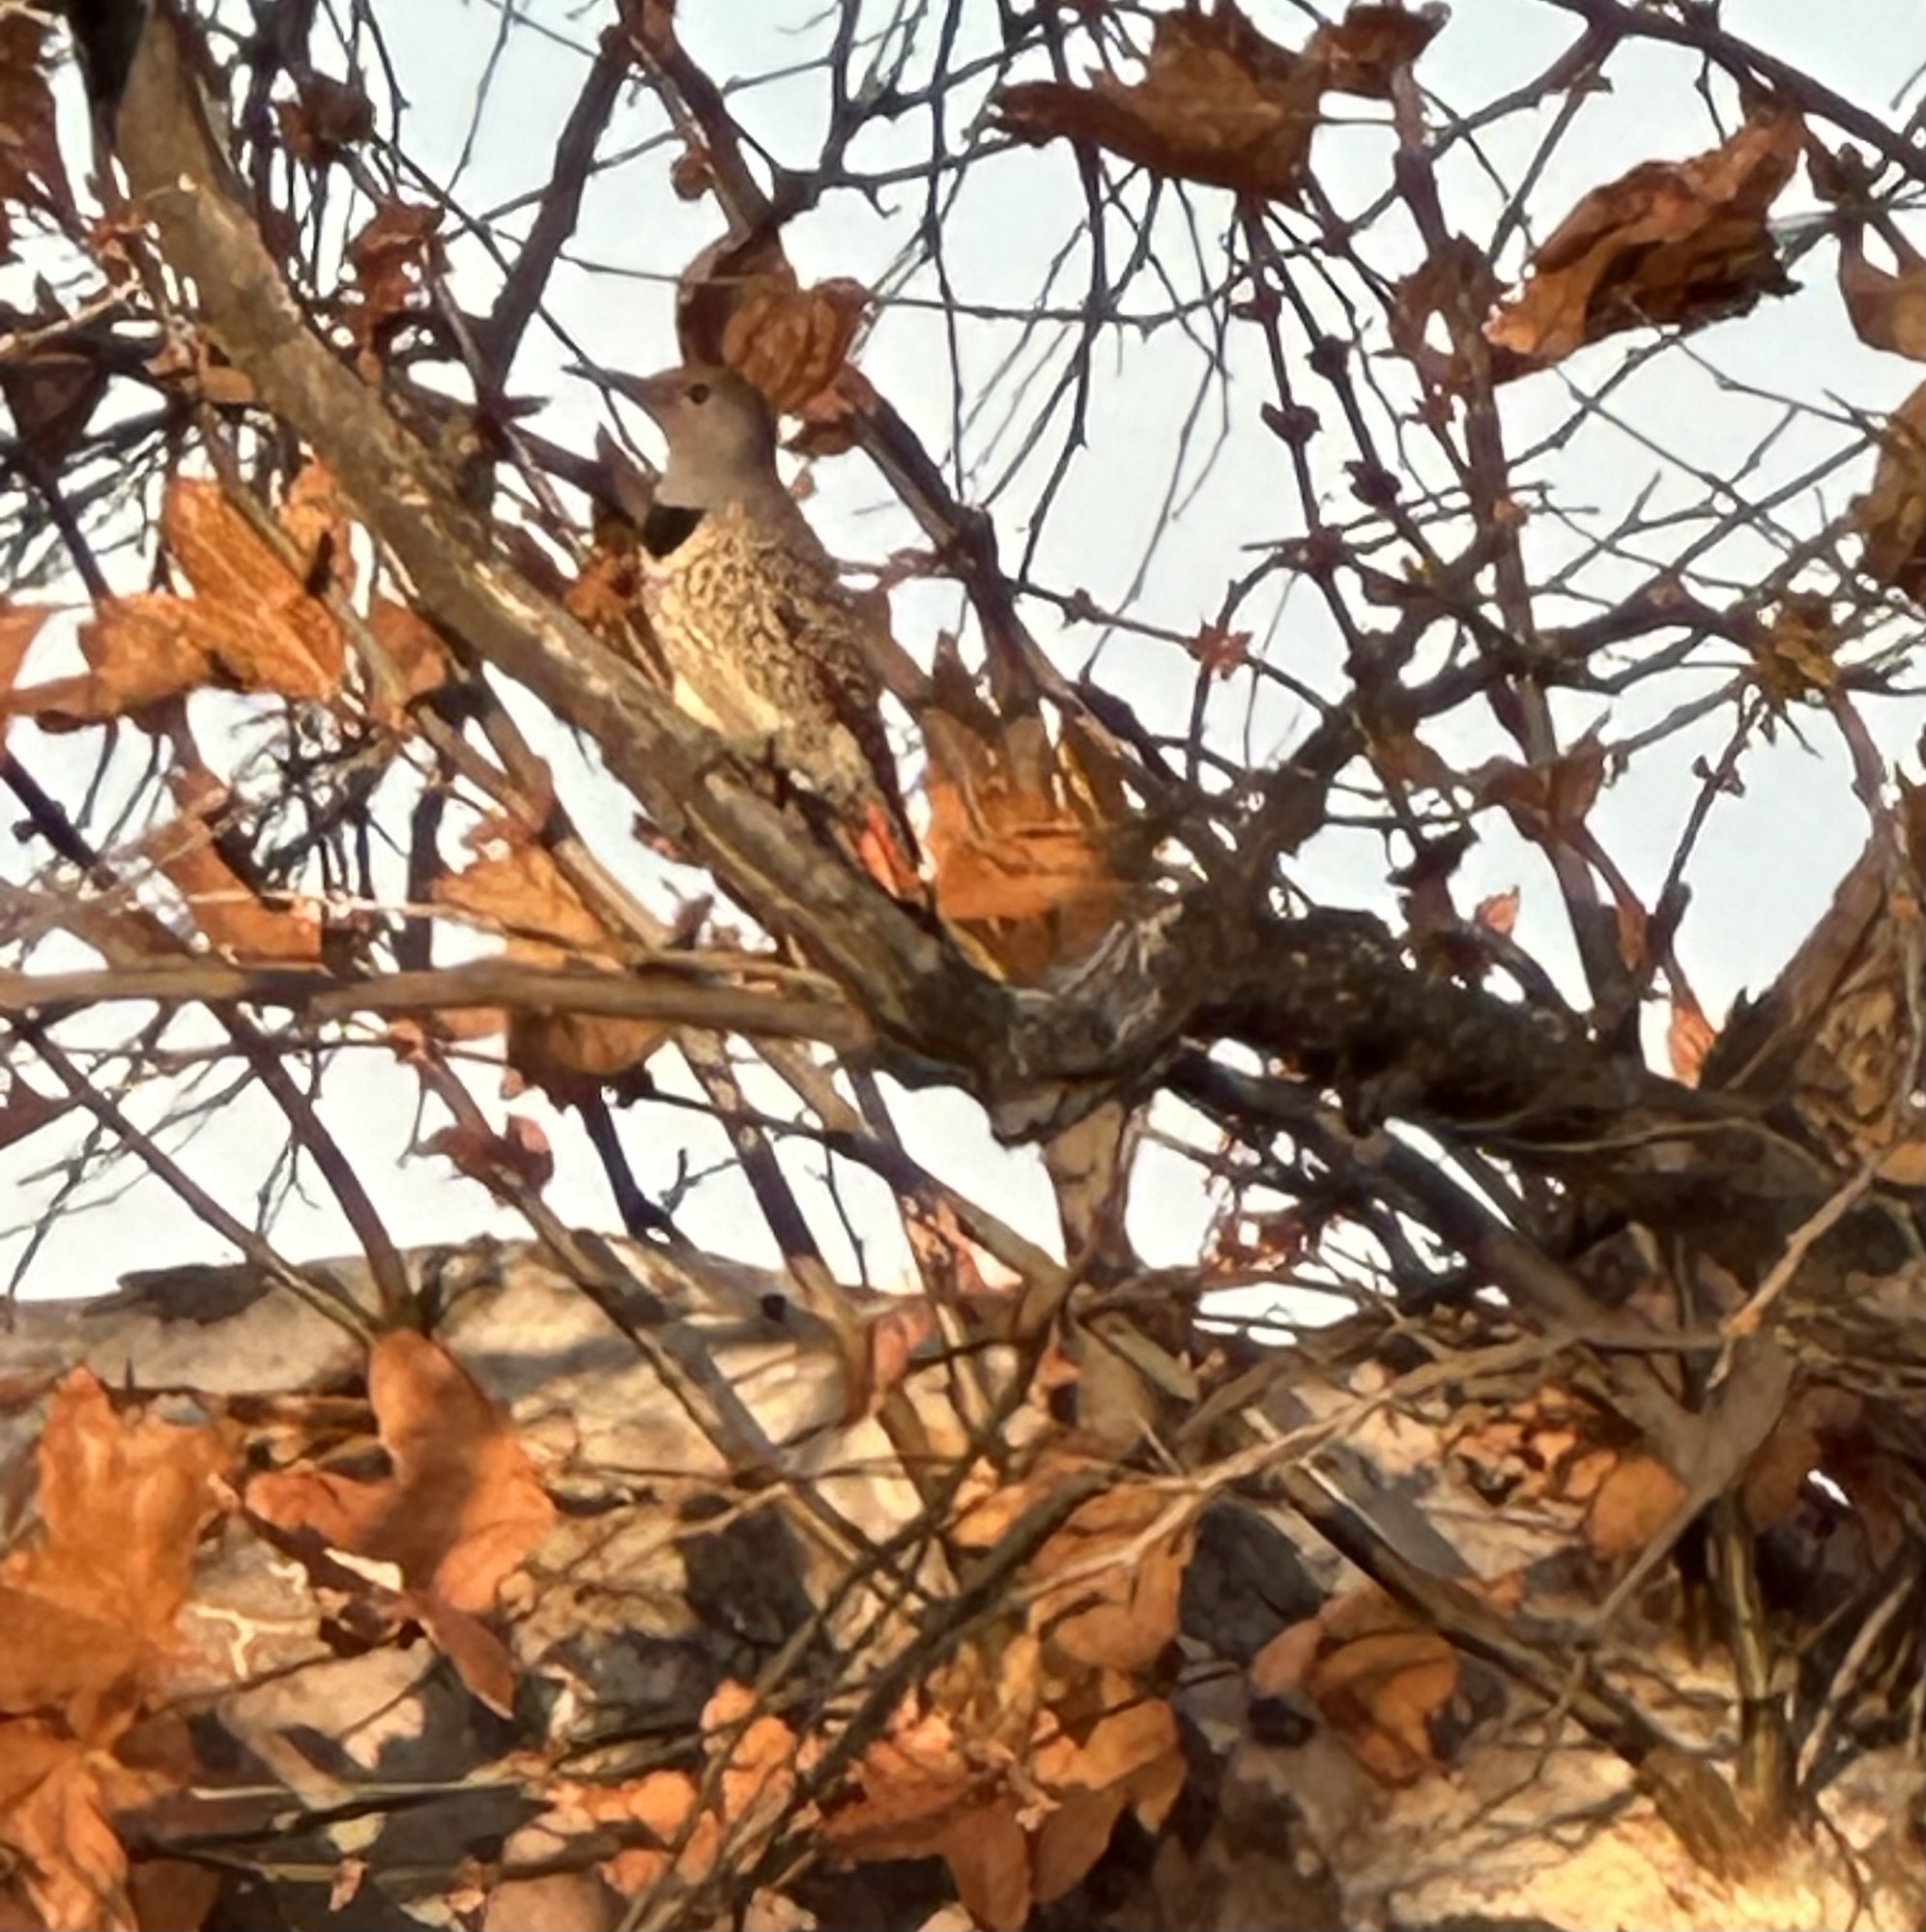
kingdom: Animalia
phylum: Chordata
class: Aves
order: Piciformes
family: Picidae
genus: Colaptes
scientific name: Colaptes auratus
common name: Northern flicker
